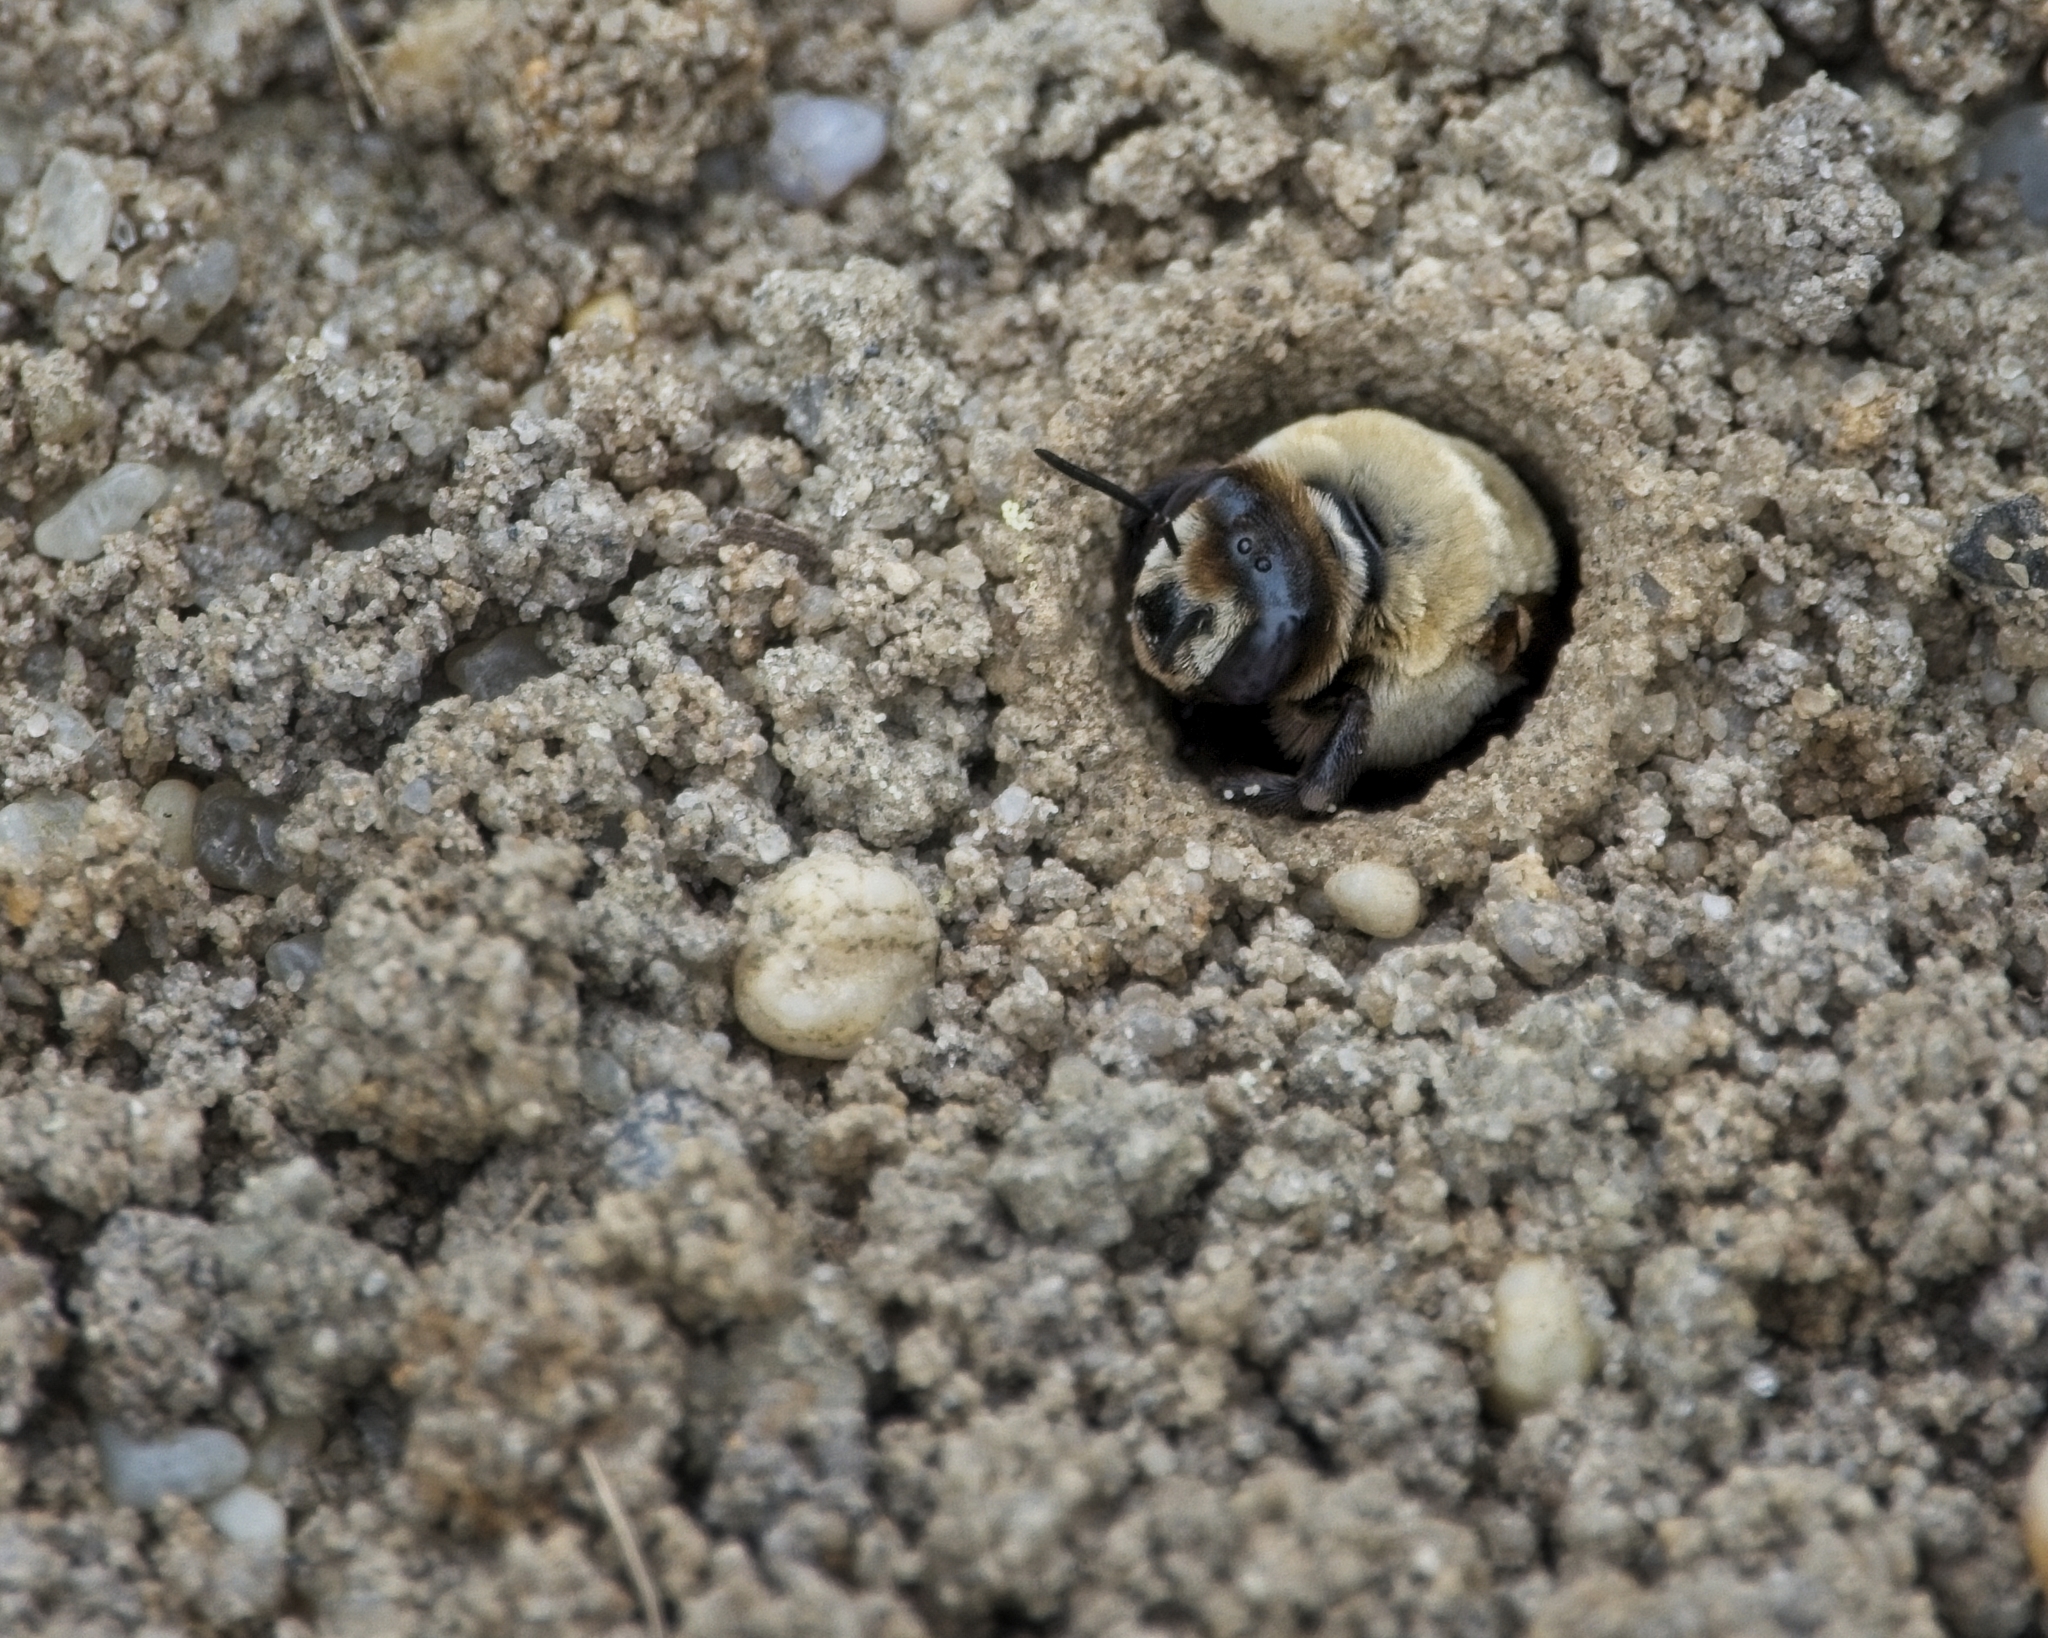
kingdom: Animalia
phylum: Arthropoda
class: Insecta
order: Hymenoptera
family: Apidae
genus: Ptilothrix
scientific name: Ptilothrix bombiformis
